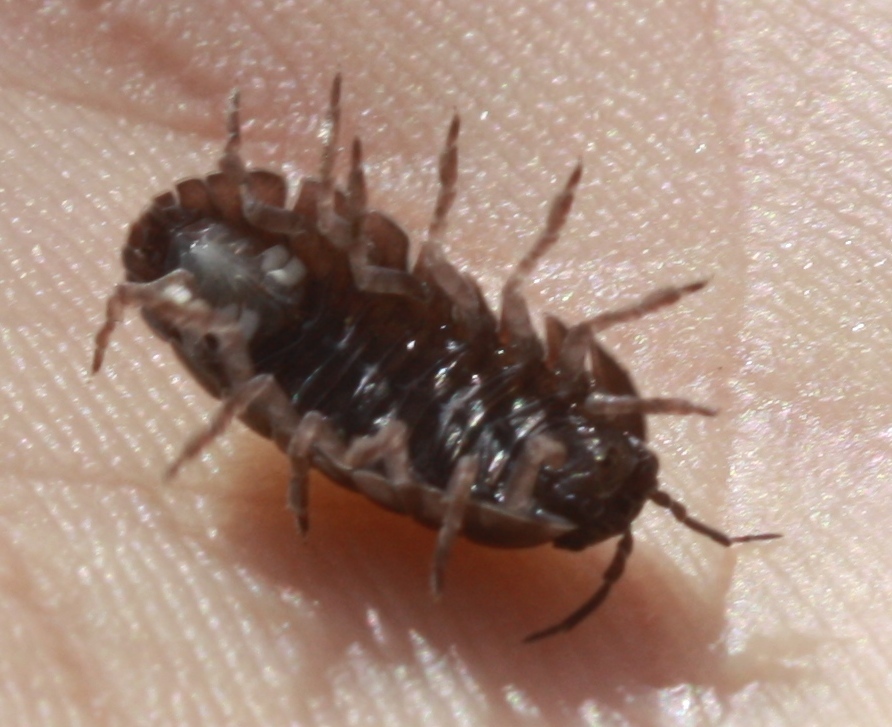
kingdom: Animalia
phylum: Arthropoda
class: Malacostraca
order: Isopoda
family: Armadillidiidae
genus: Armadillidium
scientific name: Armadillidium vulgare
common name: Common pill woodlouse
